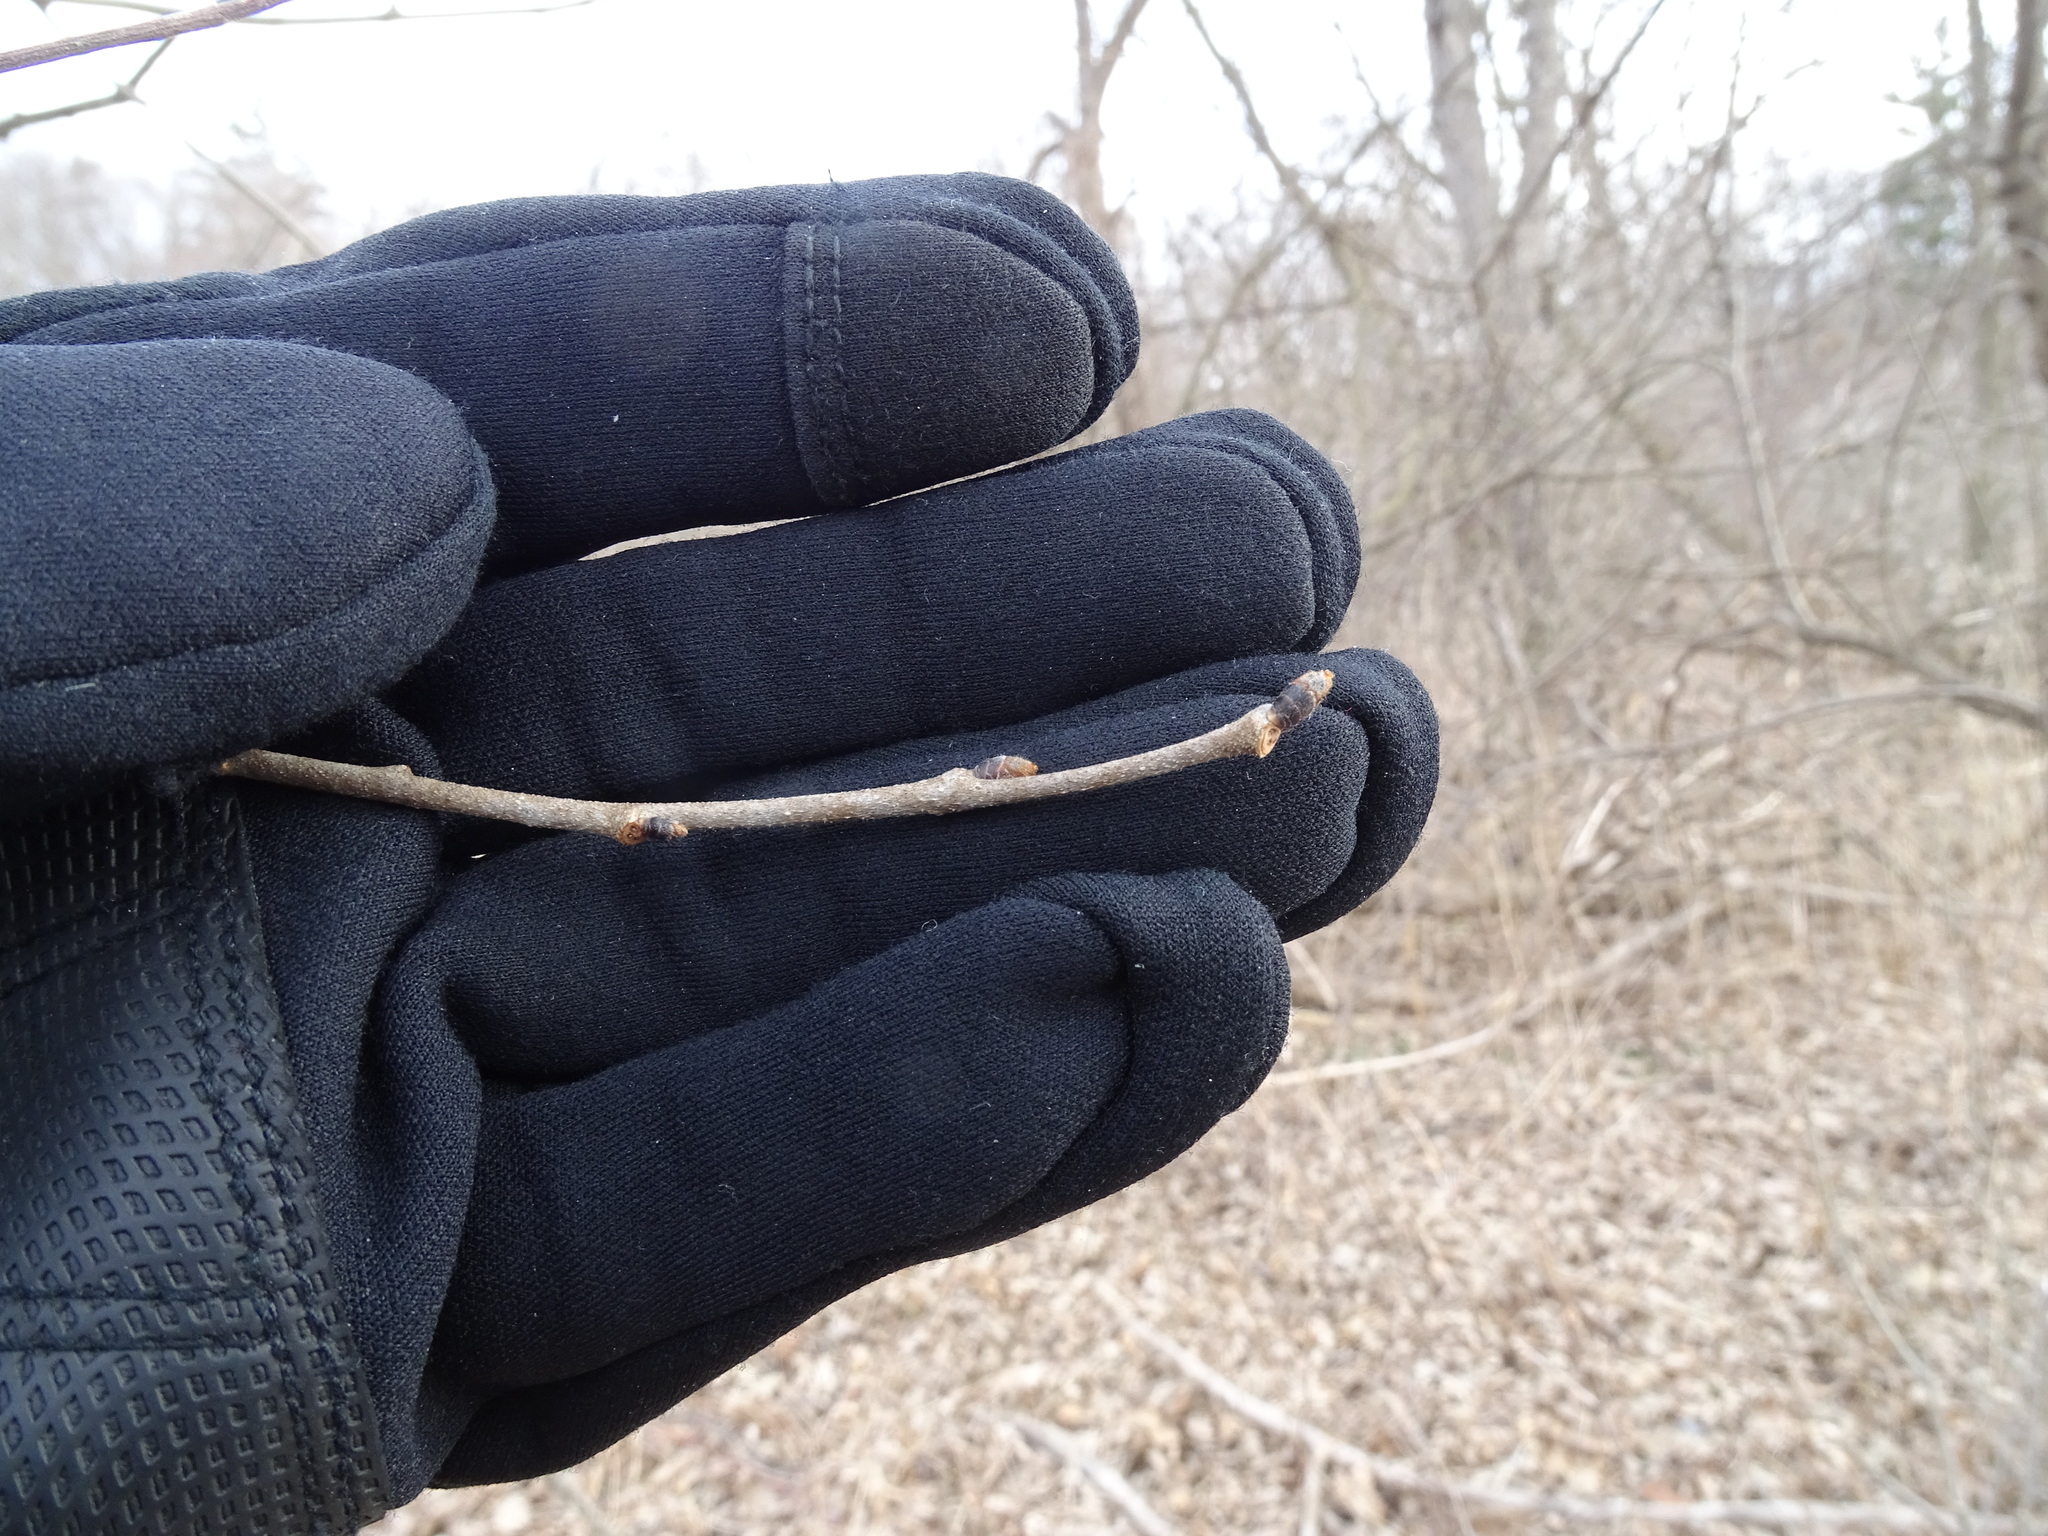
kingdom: Plantae
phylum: Tracheophyta
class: Magnoliopsida
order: Rosales
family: Ulmaceae
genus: Ulmus
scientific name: Ulmus rubra
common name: Slippery elm
